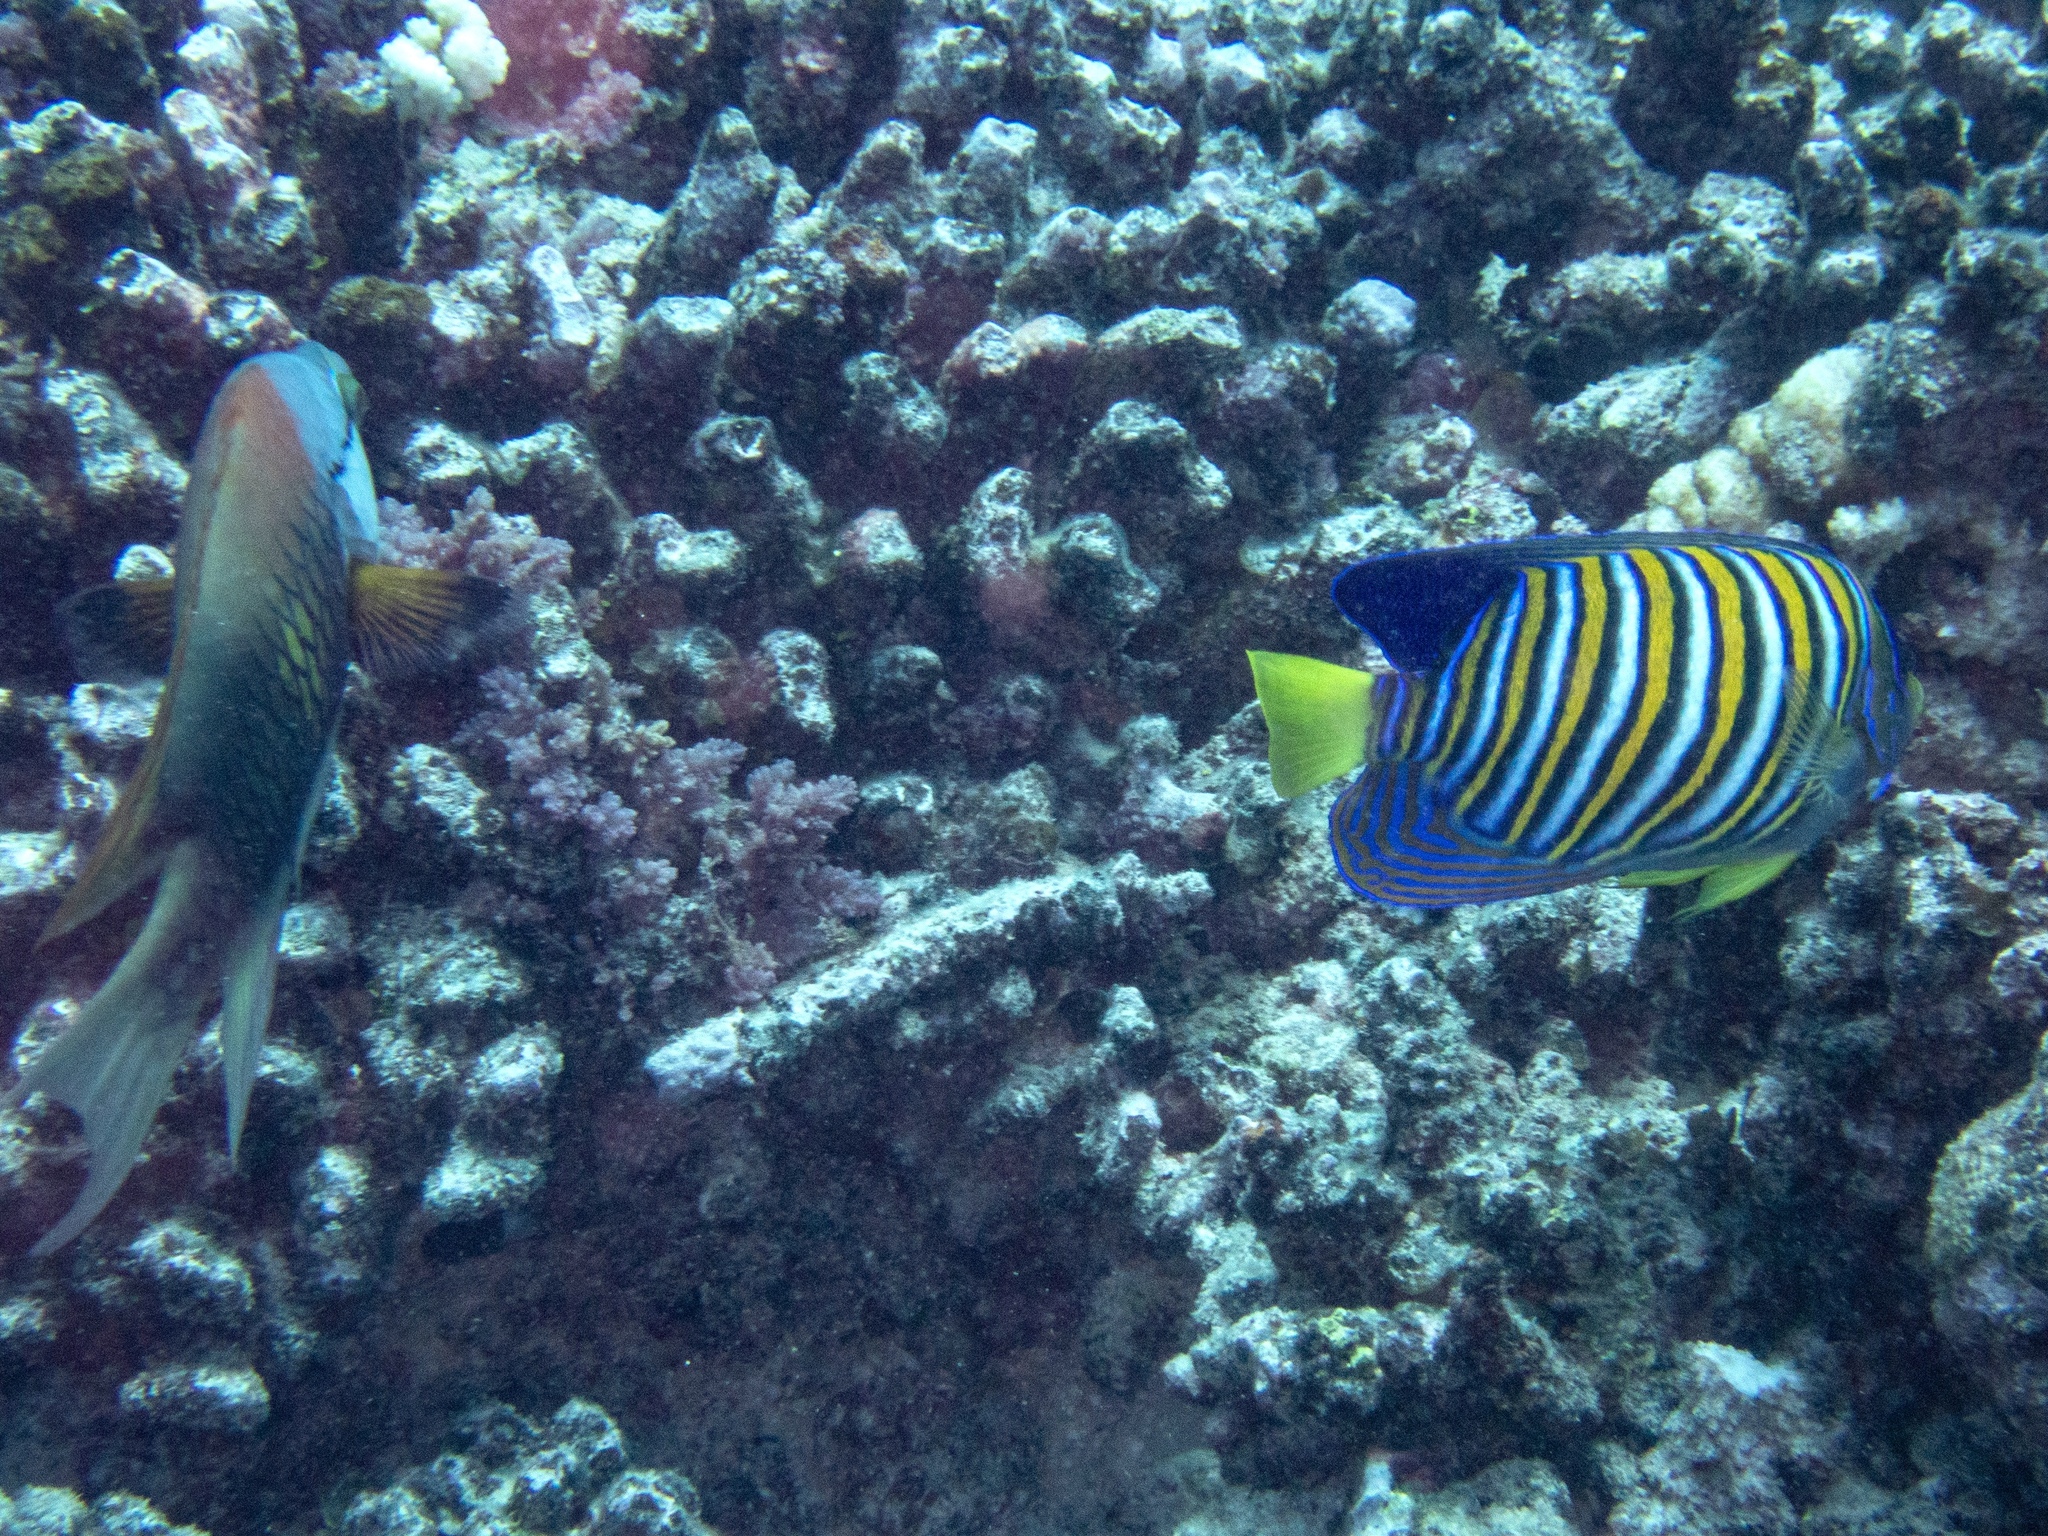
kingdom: Animalia
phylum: Chordata
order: Perciformes
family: Pomacanthidae
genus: Pygoplites
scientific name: Pygoplites diacanthus
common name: Regal angelfish
